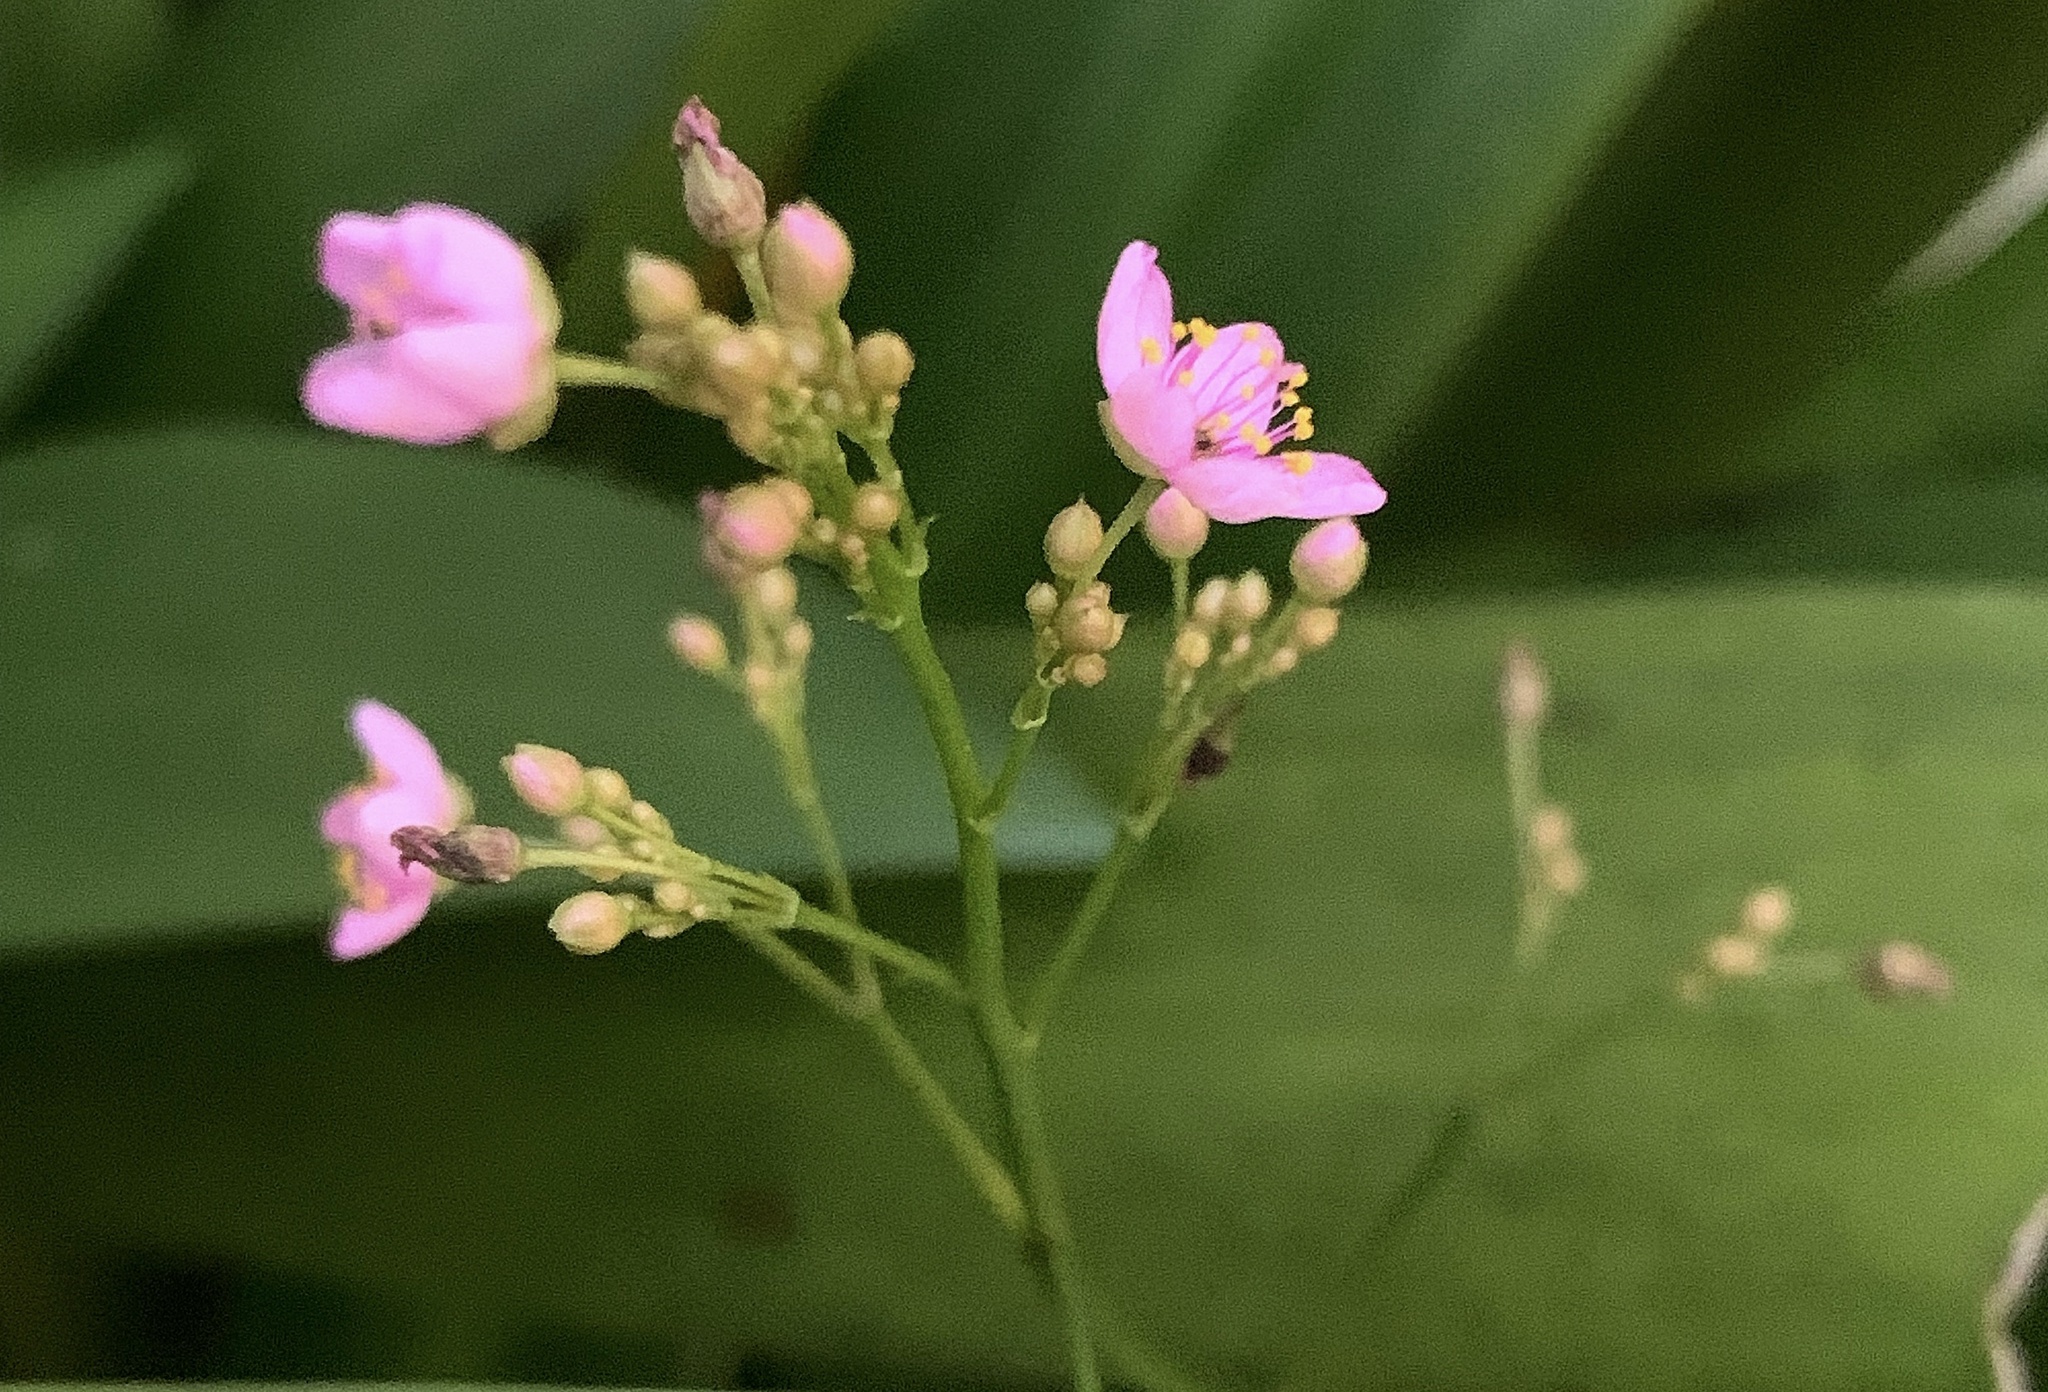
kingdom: Plantae
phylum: Tracheophyta
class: Magnoliopsida
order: Caryophyllales
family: Talinaceae
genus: Talinum
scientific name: Talinum paniculatum
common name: Jewels of opar
